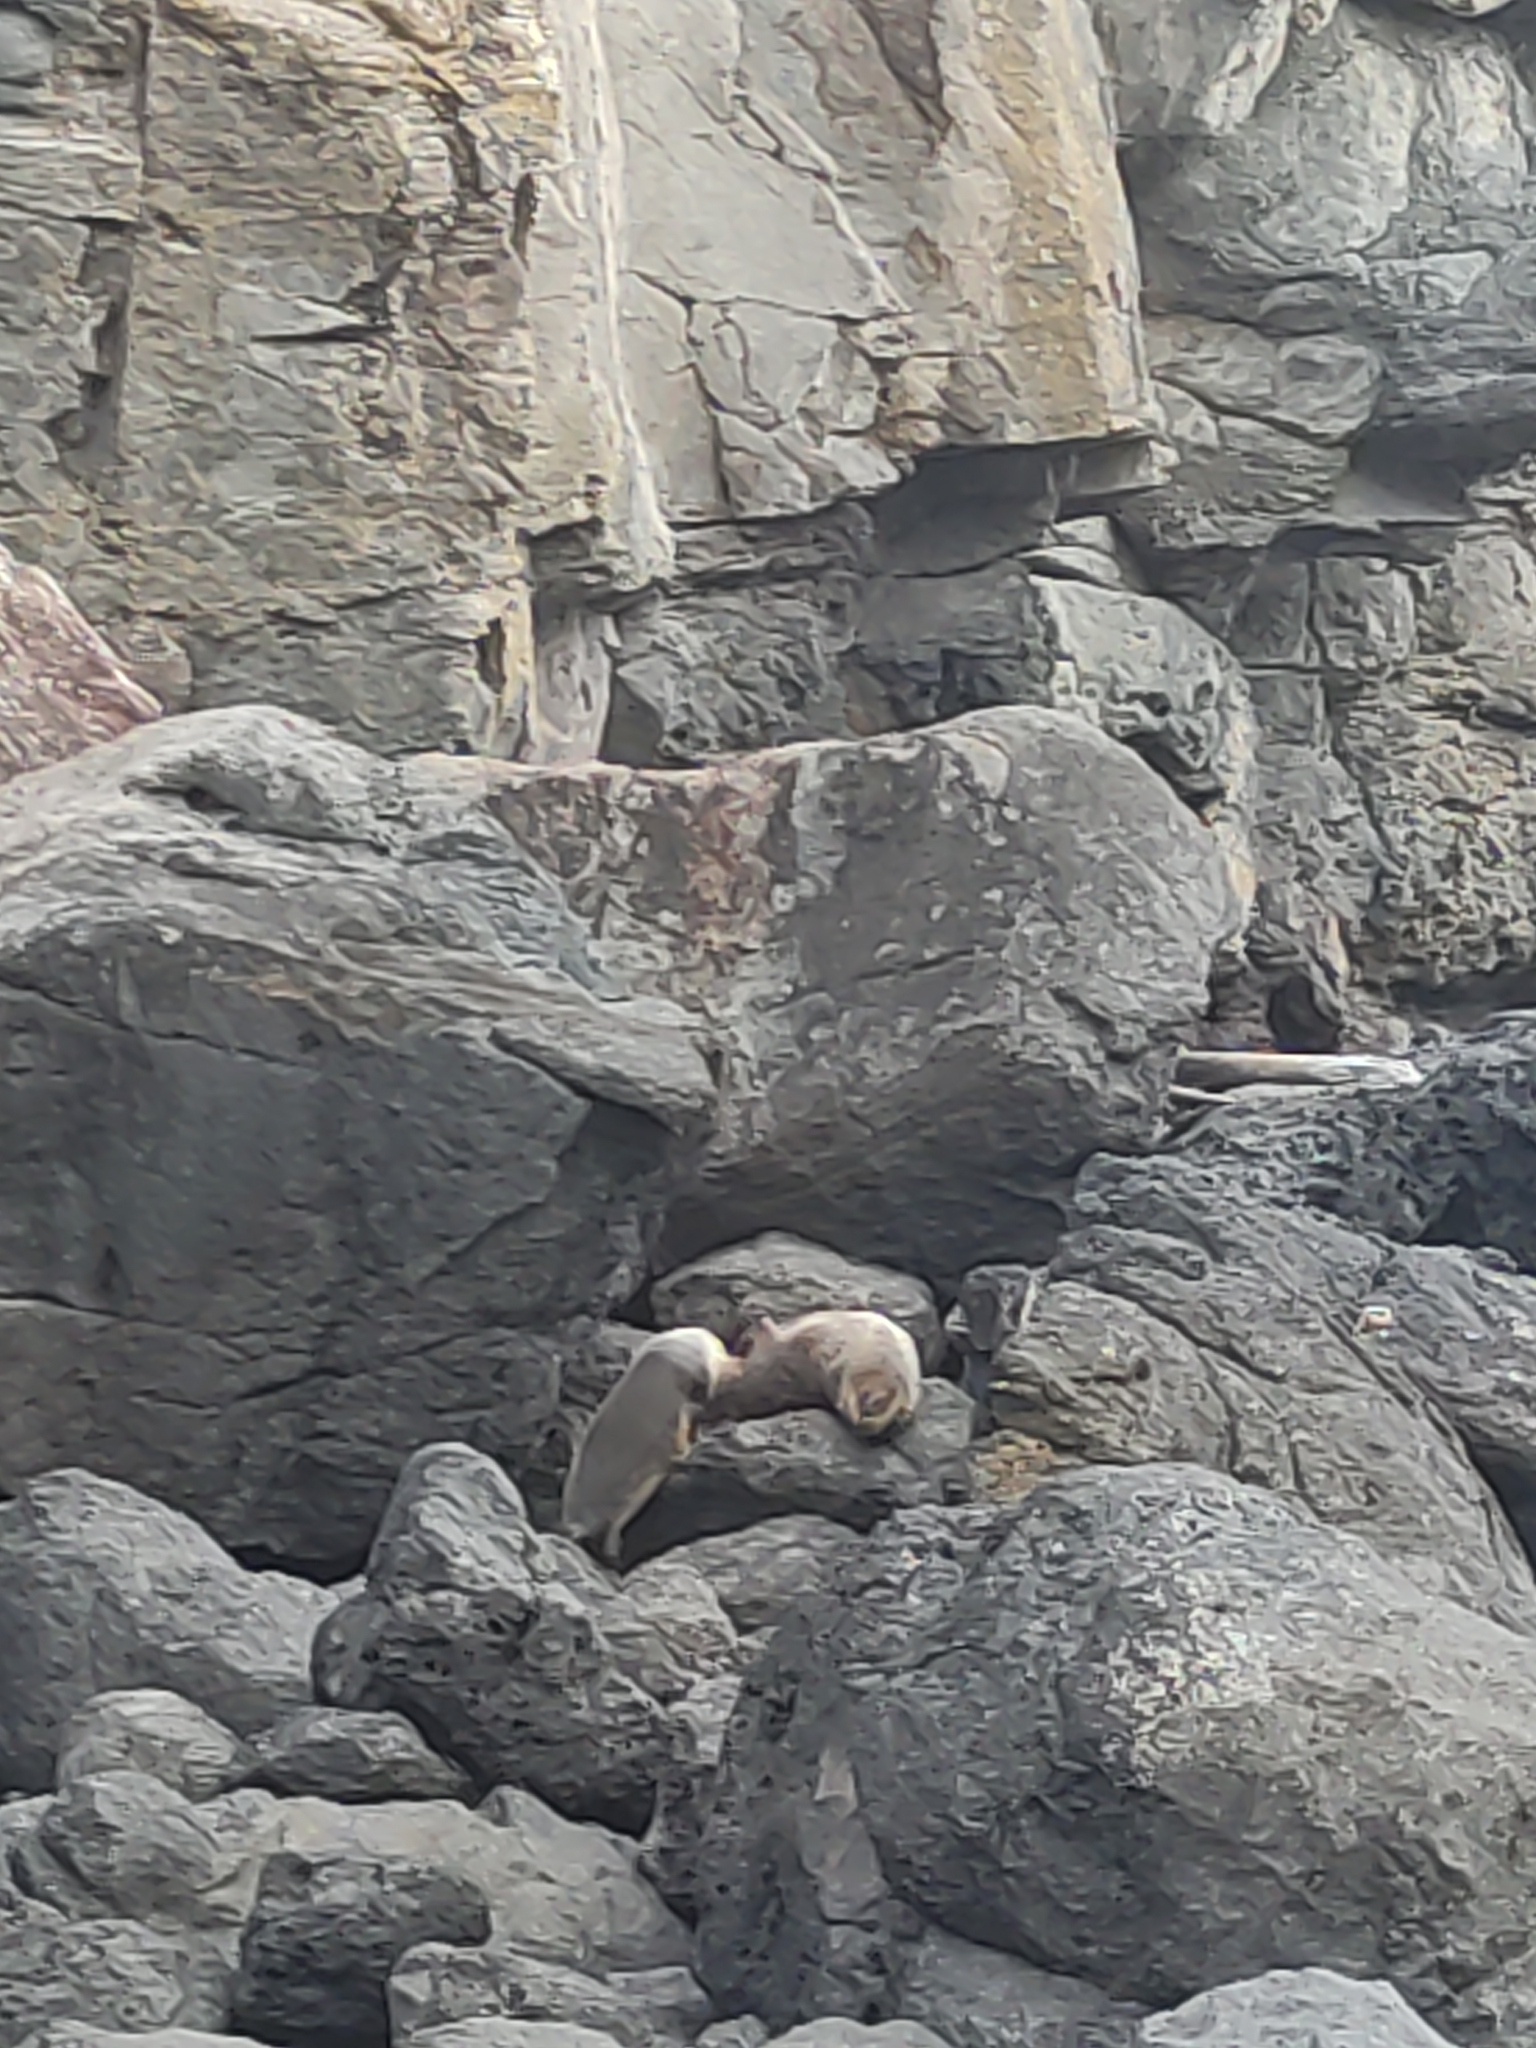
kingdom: Animalia
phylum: Chordata
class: Mammalia
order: Carnivora
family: Otariidae
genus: Arctocephalus
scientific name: Arctocephalus forsteri
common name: New zealand fur seal
